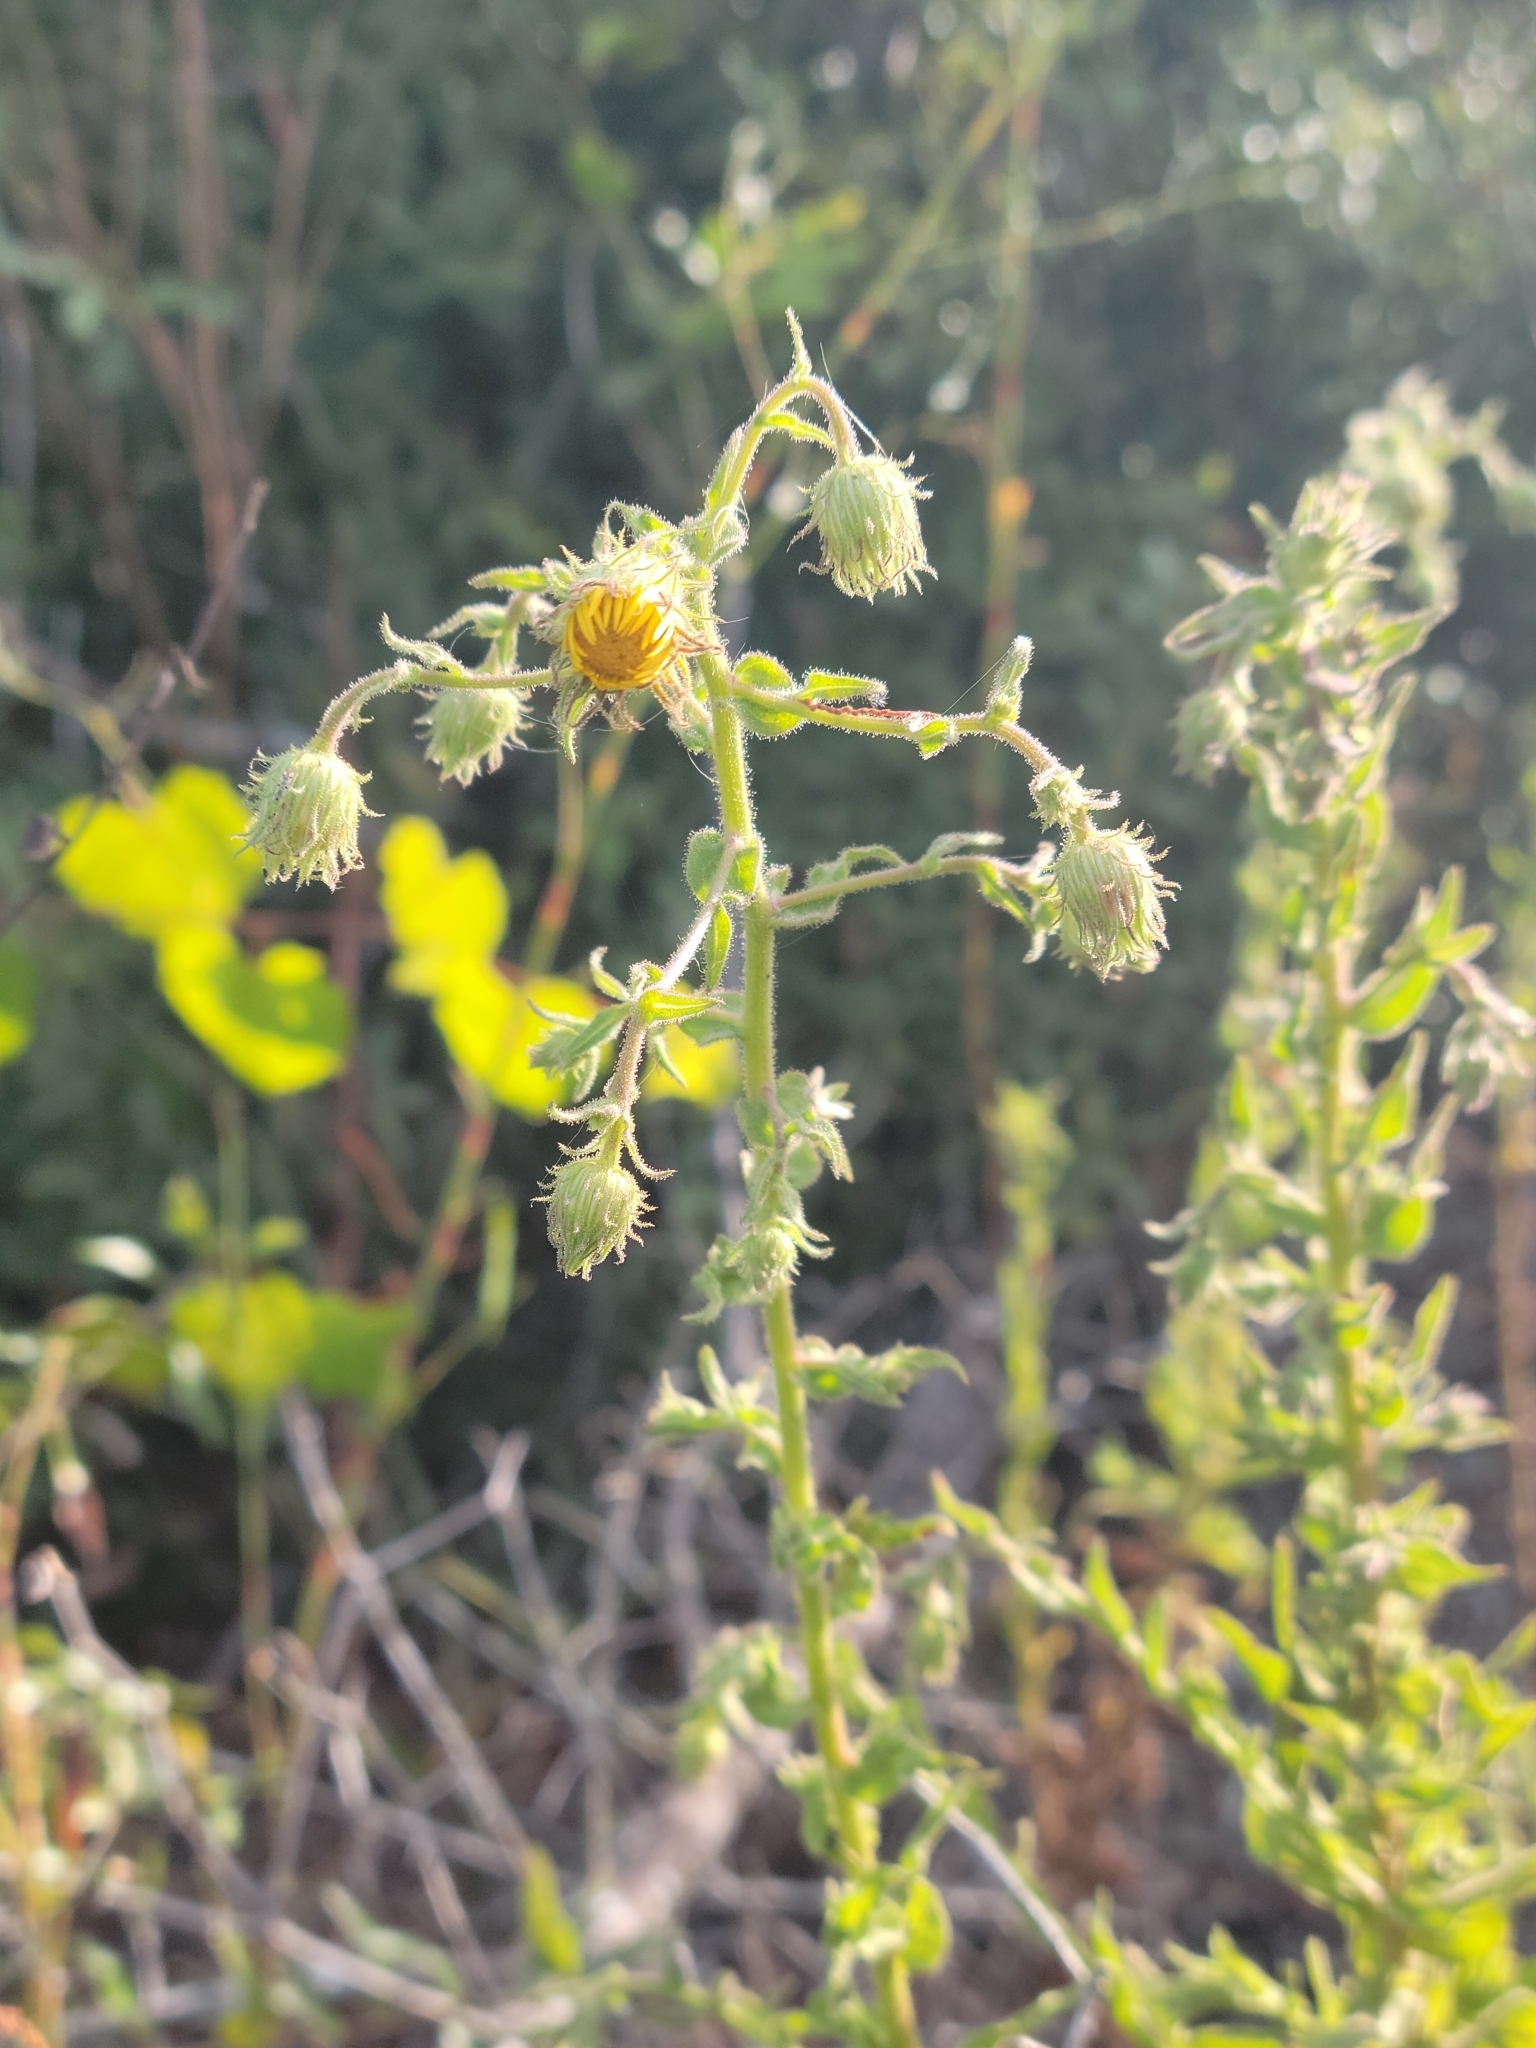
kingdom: Plantae
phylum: Tracheophyta
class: Magnoliopsida
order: Asterales
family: Asteraceae
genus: Chrysopsis
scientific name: Chrysopsis lanuginosa
